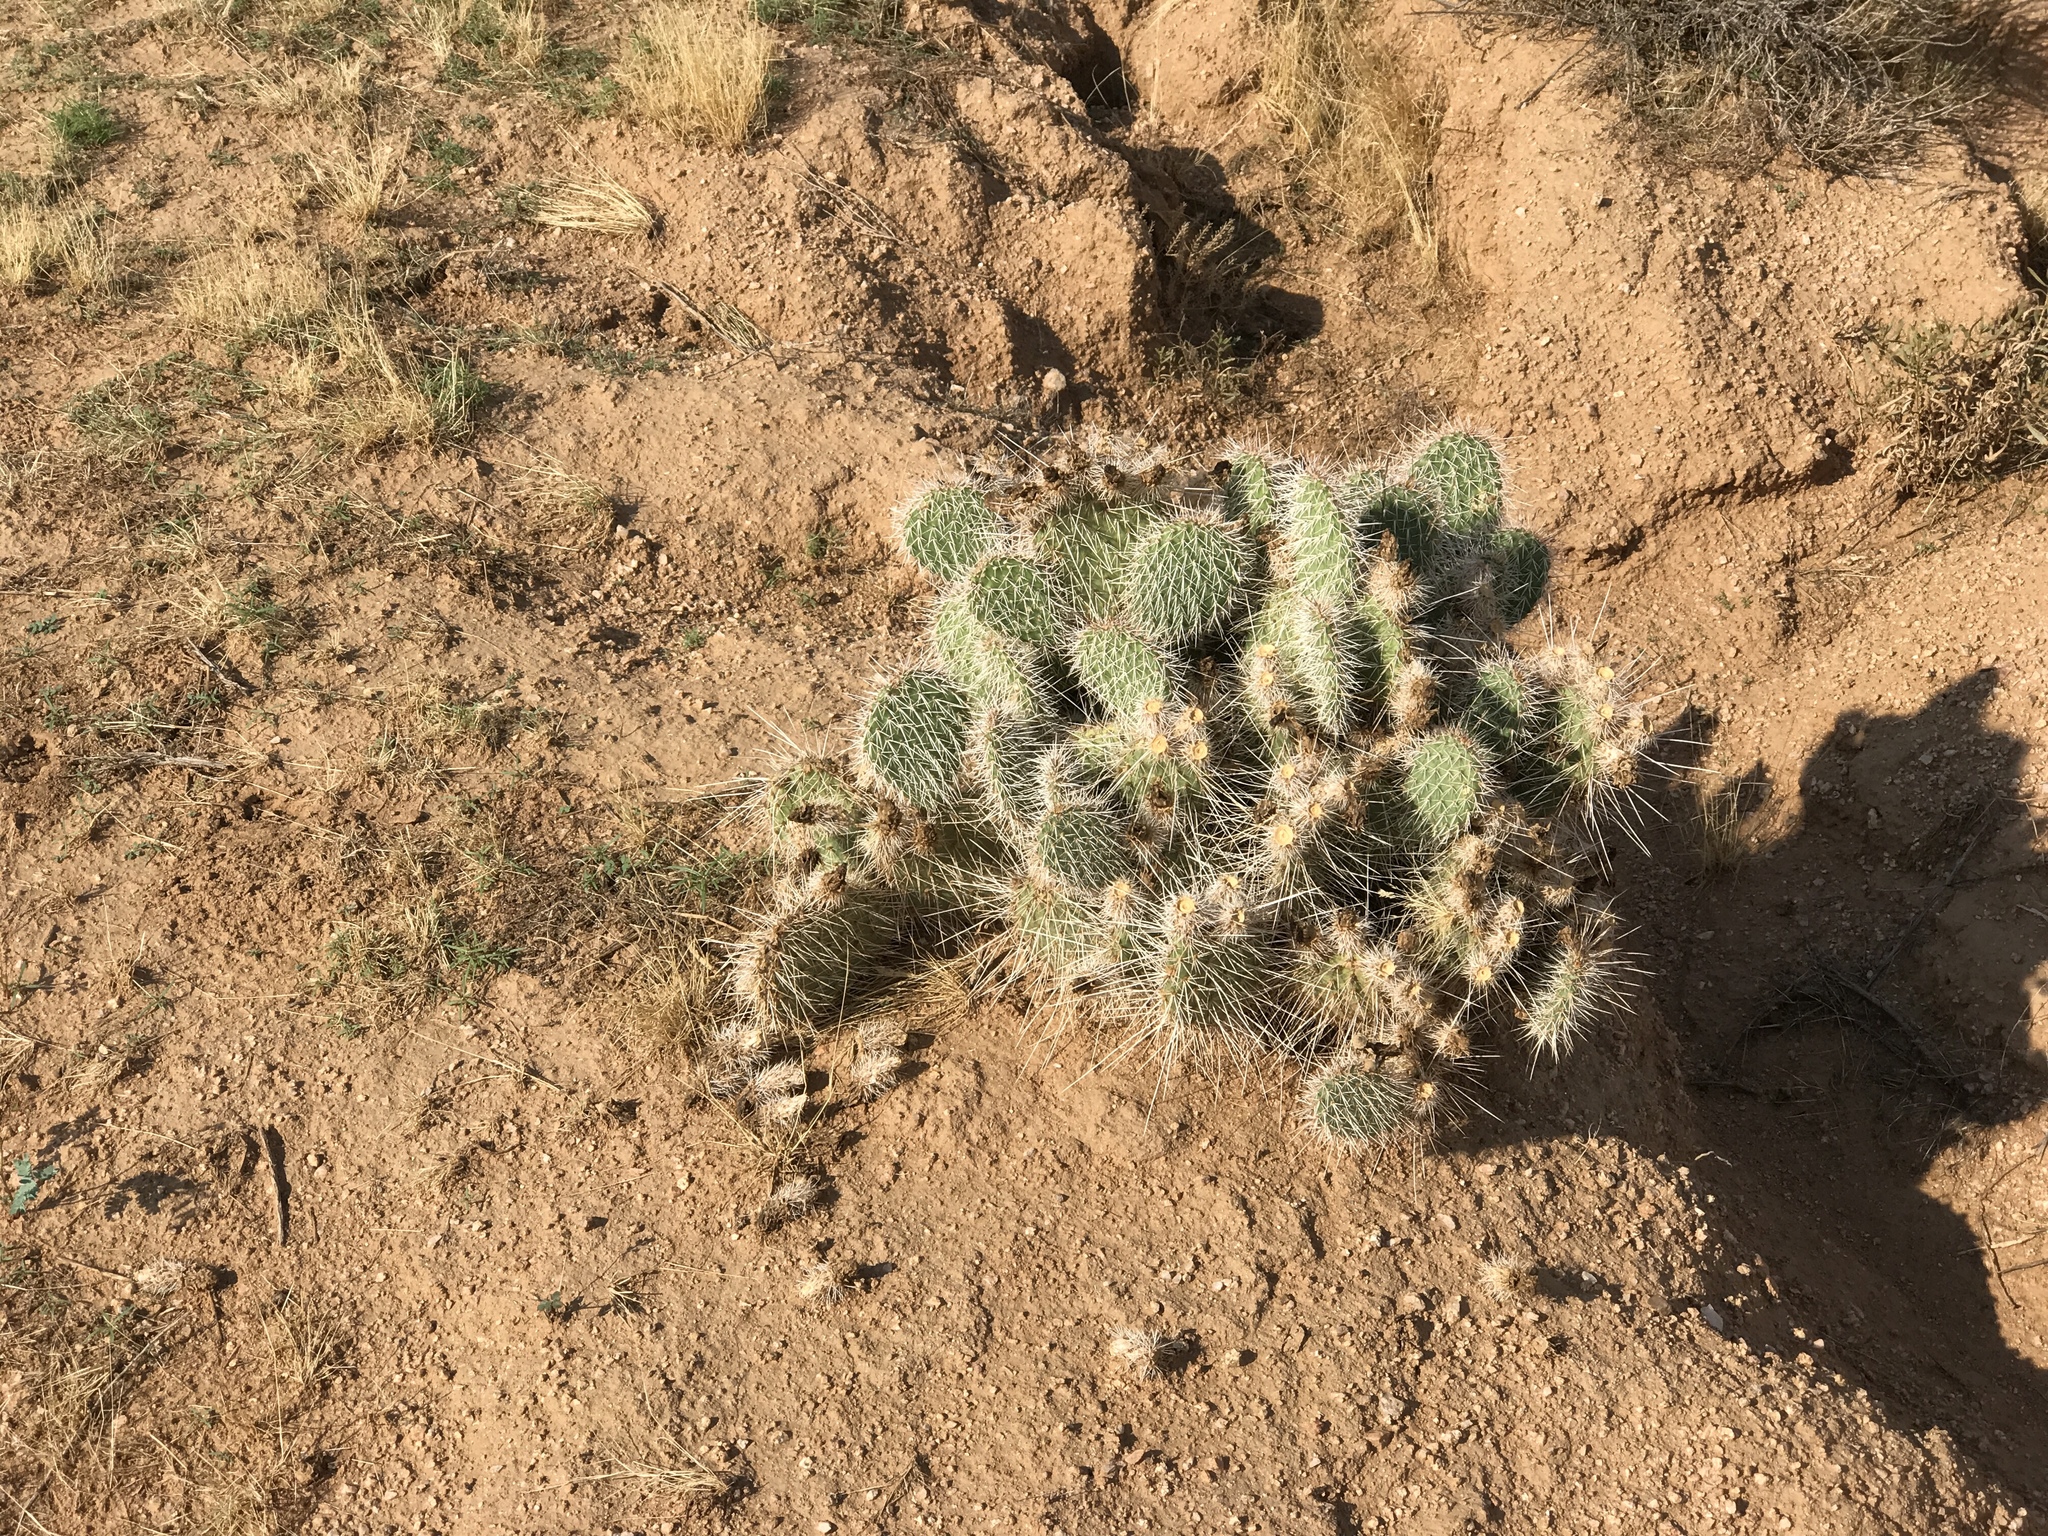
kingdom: Plantae
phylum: Tracheophyta
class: Magnoliopsida
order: Caryophyllales
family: Cactaceae
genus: Opuntia
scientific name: Opuntia polyacantha
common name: Plains prickly-pear
